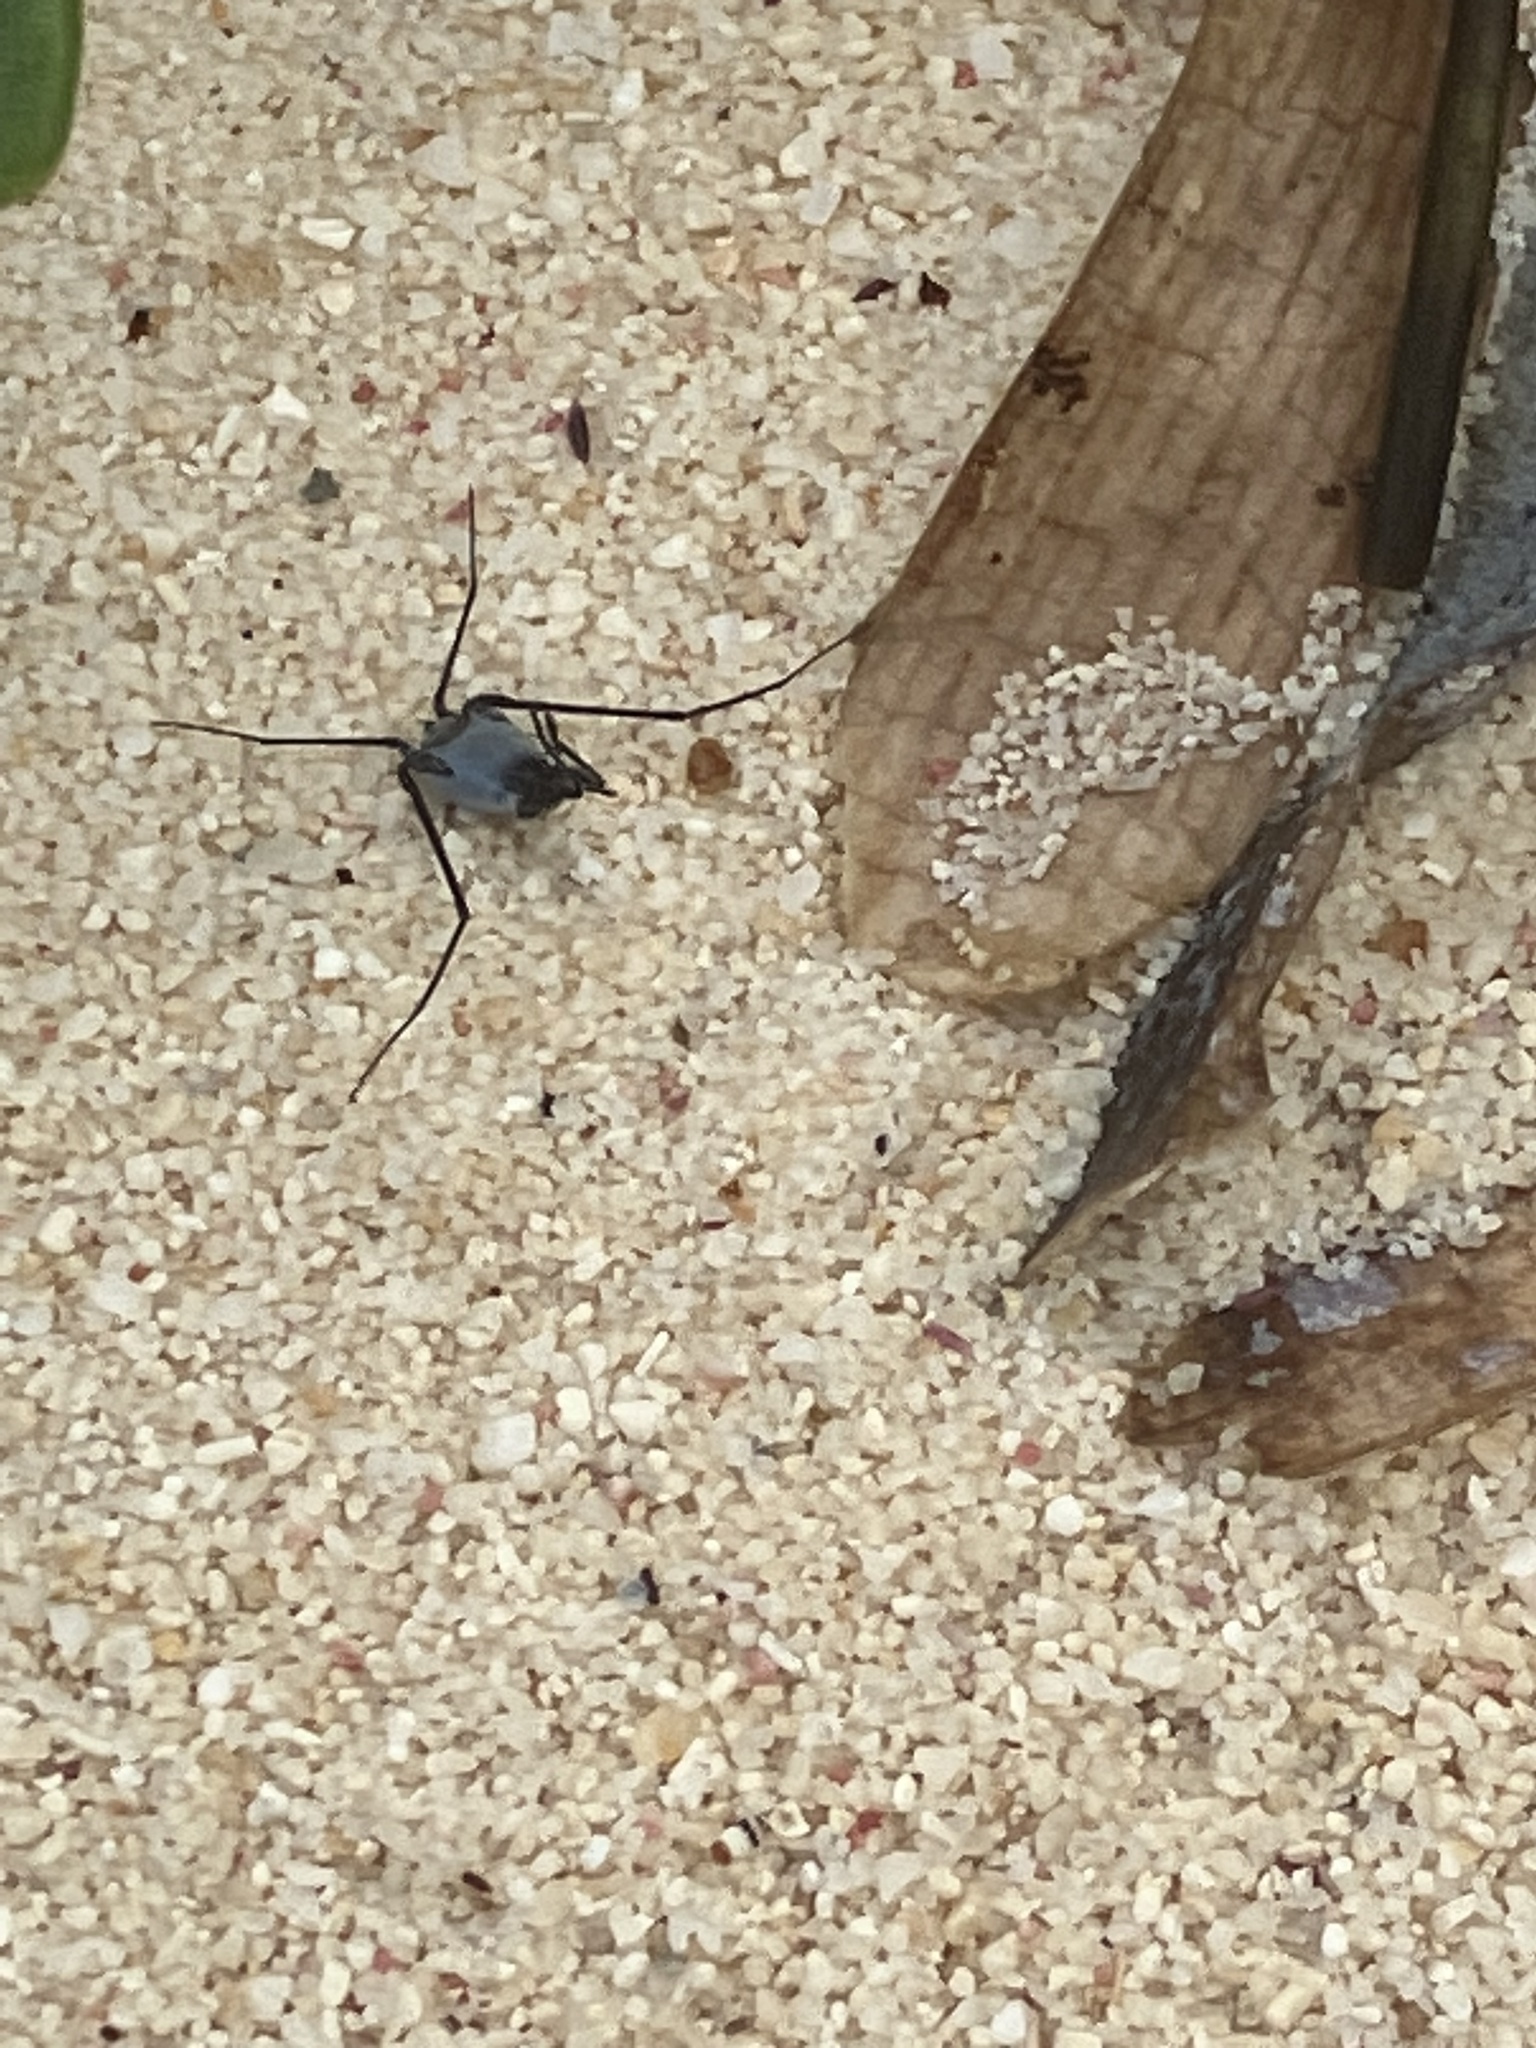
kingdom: Animalia
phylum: Arthropoda
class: Insecta
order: Hemiptera
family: Gerridae
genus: Halobates
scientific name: Halobates micans
